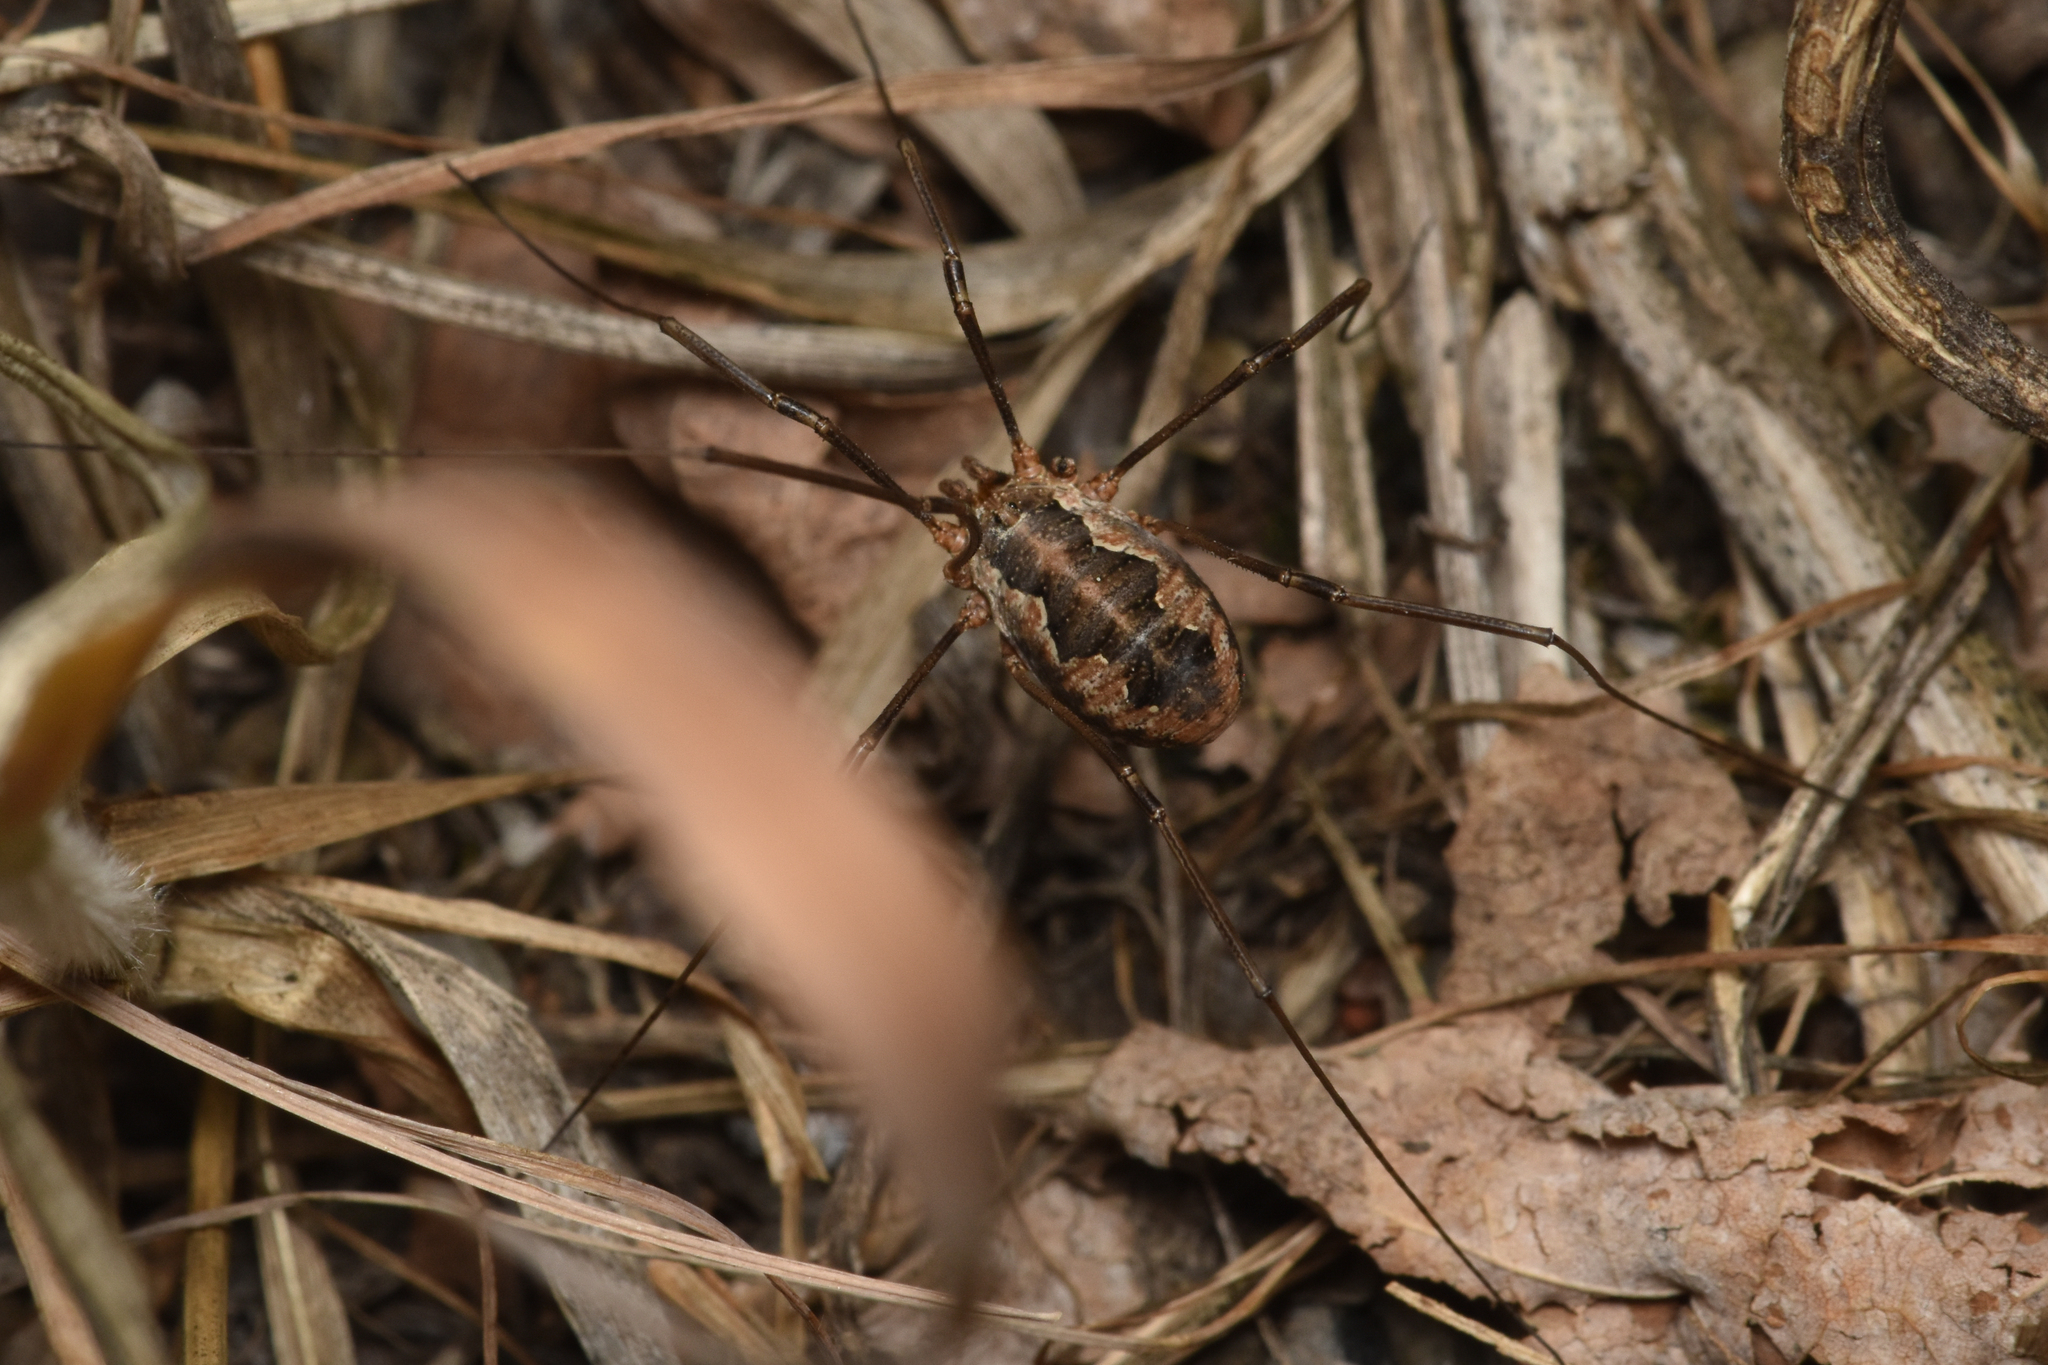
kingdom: Animalia
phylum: Arthropoda
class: Arachnida
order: Opiliones
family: Phalangiidae
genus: Phalangium
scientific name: Phalangium opilio
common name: Daddy longleg
